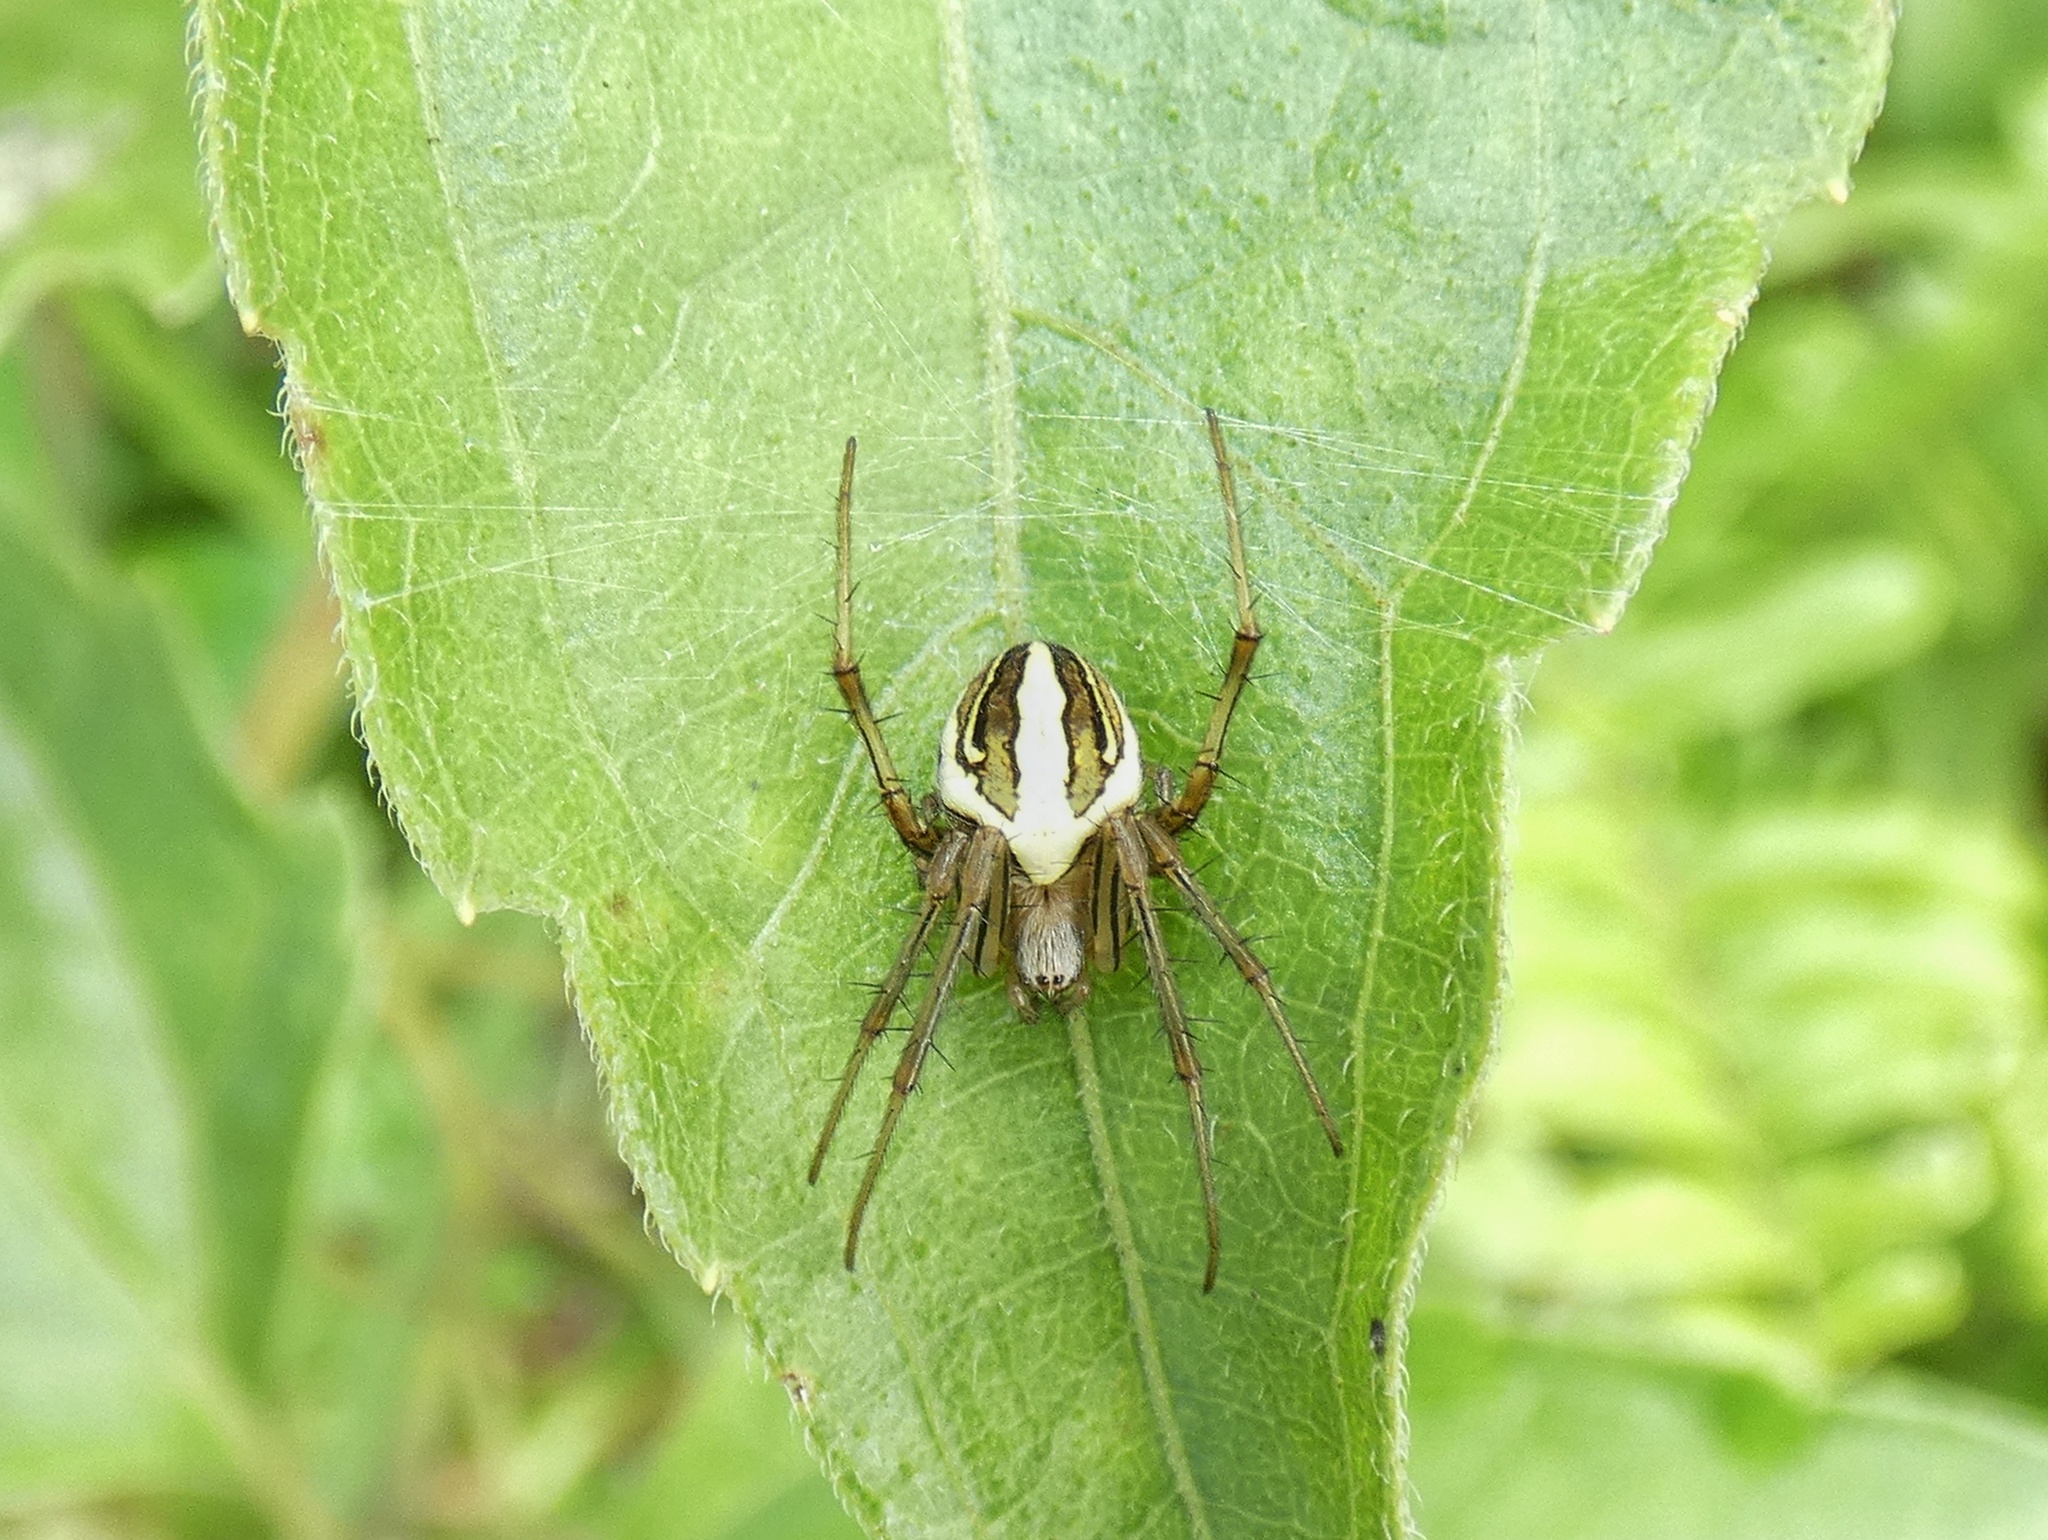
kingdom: Animalia
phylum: Arthropoda
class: Arachnida
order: Araneae
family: Araneidae
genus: Neoscona
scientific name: Neoscona molemensis
